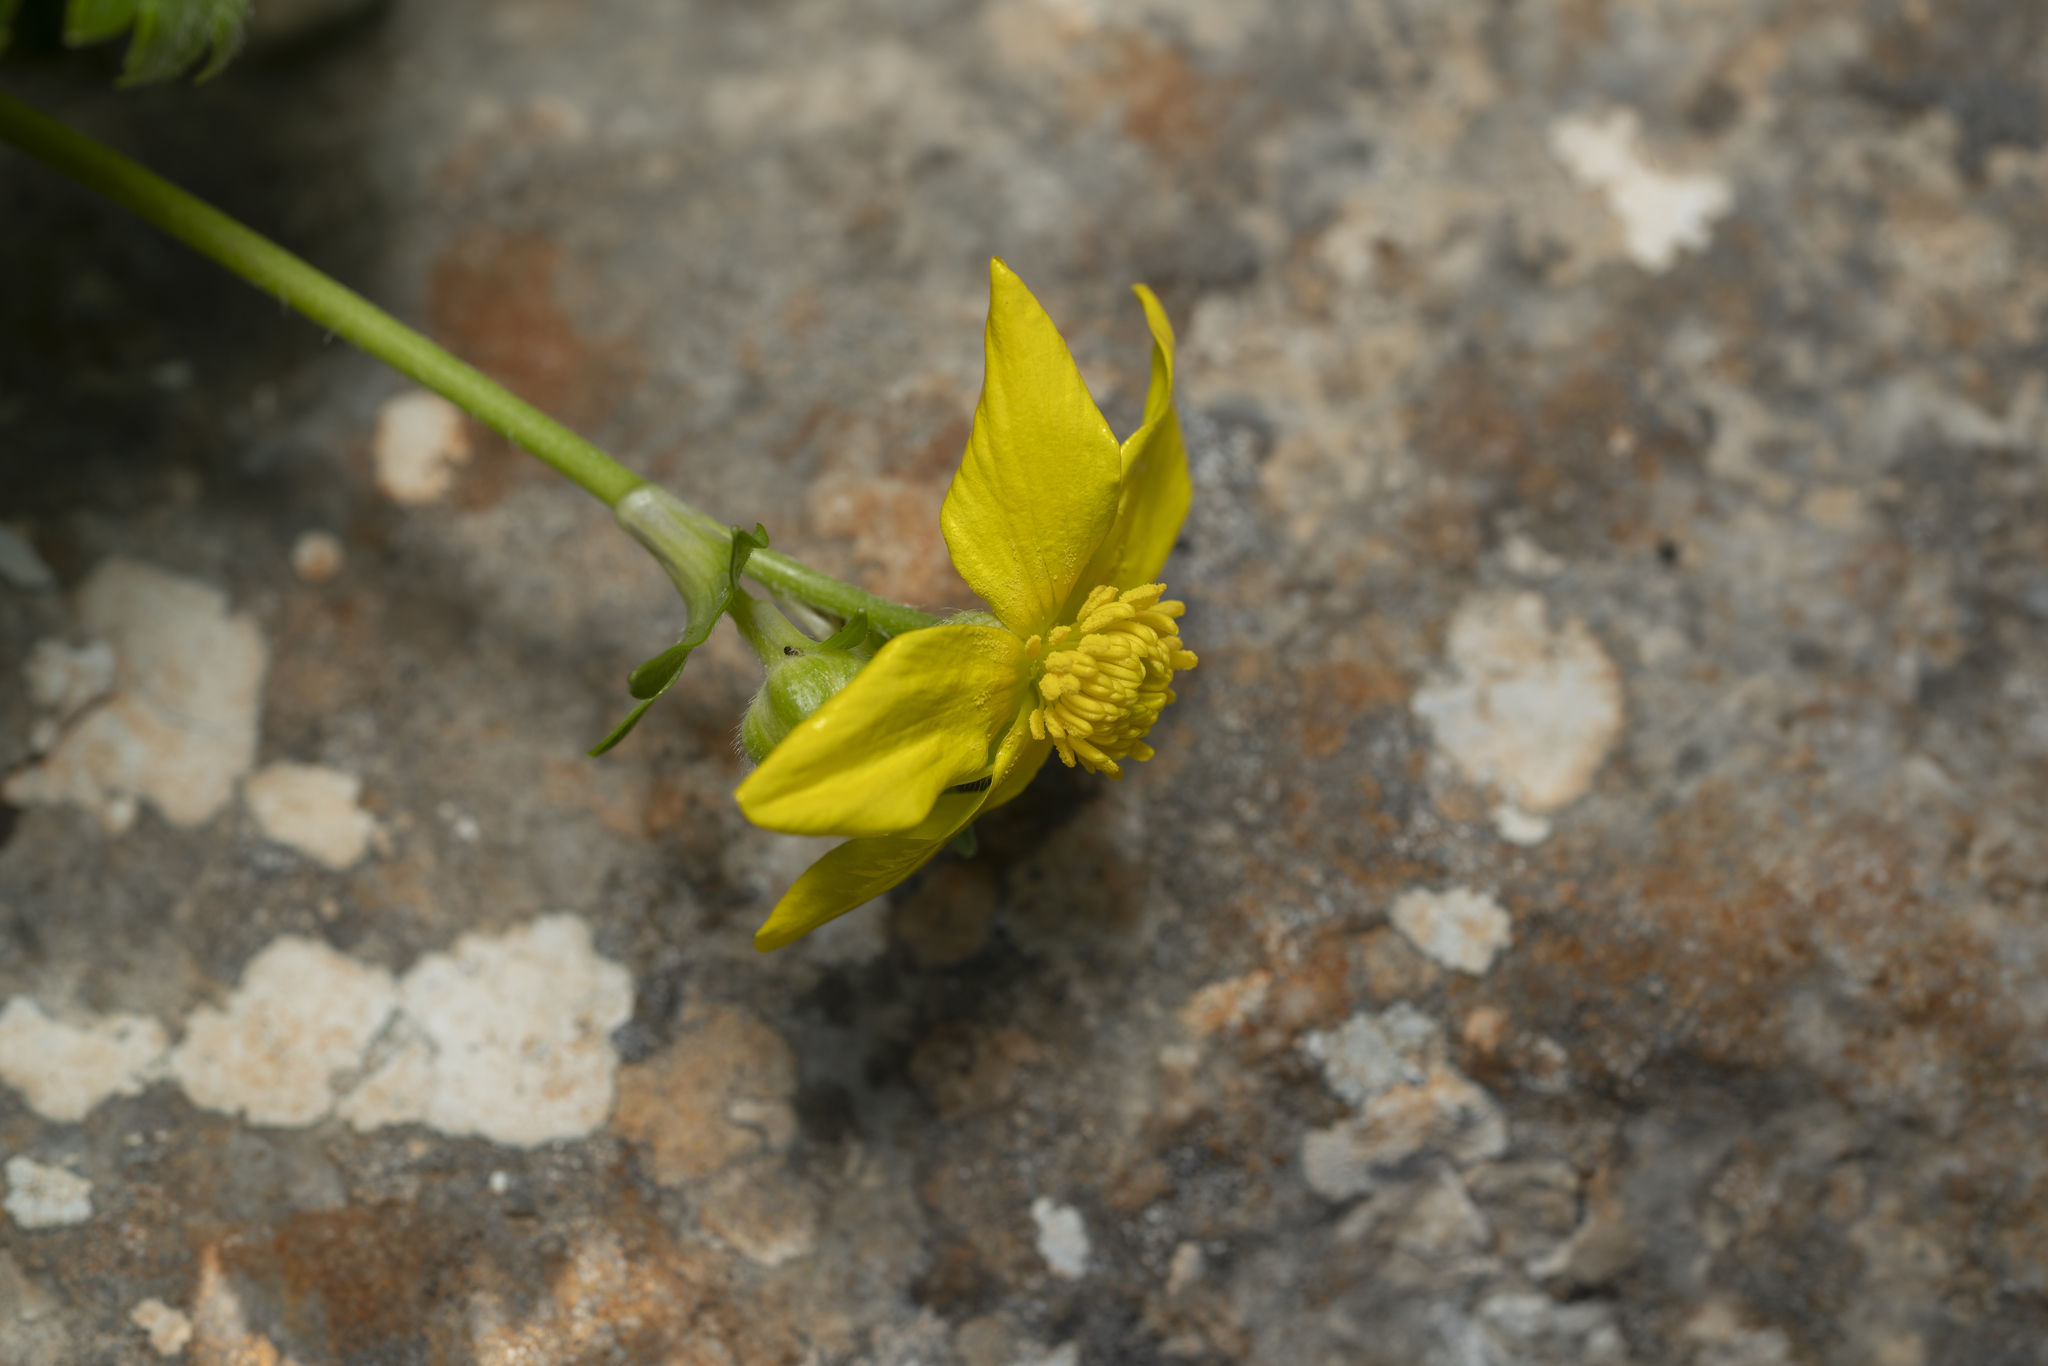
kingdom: Plantae
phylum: Tracheophyta
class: Magnoliopsida
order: Ranunculales
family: Ranunculaceae
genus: Ranunculus
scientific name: Ranunculus creticus
